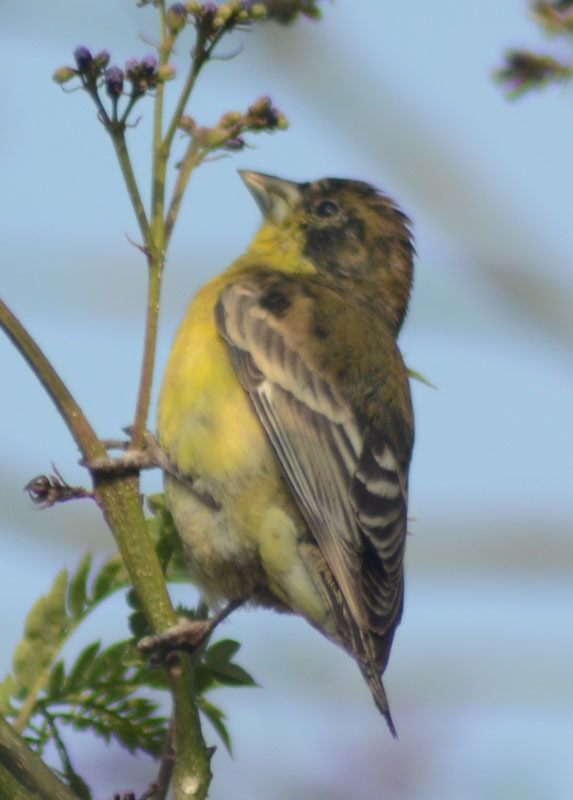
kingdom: Animalia
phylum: Chordata
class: Aves
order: Passeriformes
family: Fringillidae
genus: Spinus
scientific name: Spinus psaltria
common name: Lesser goldfinch
